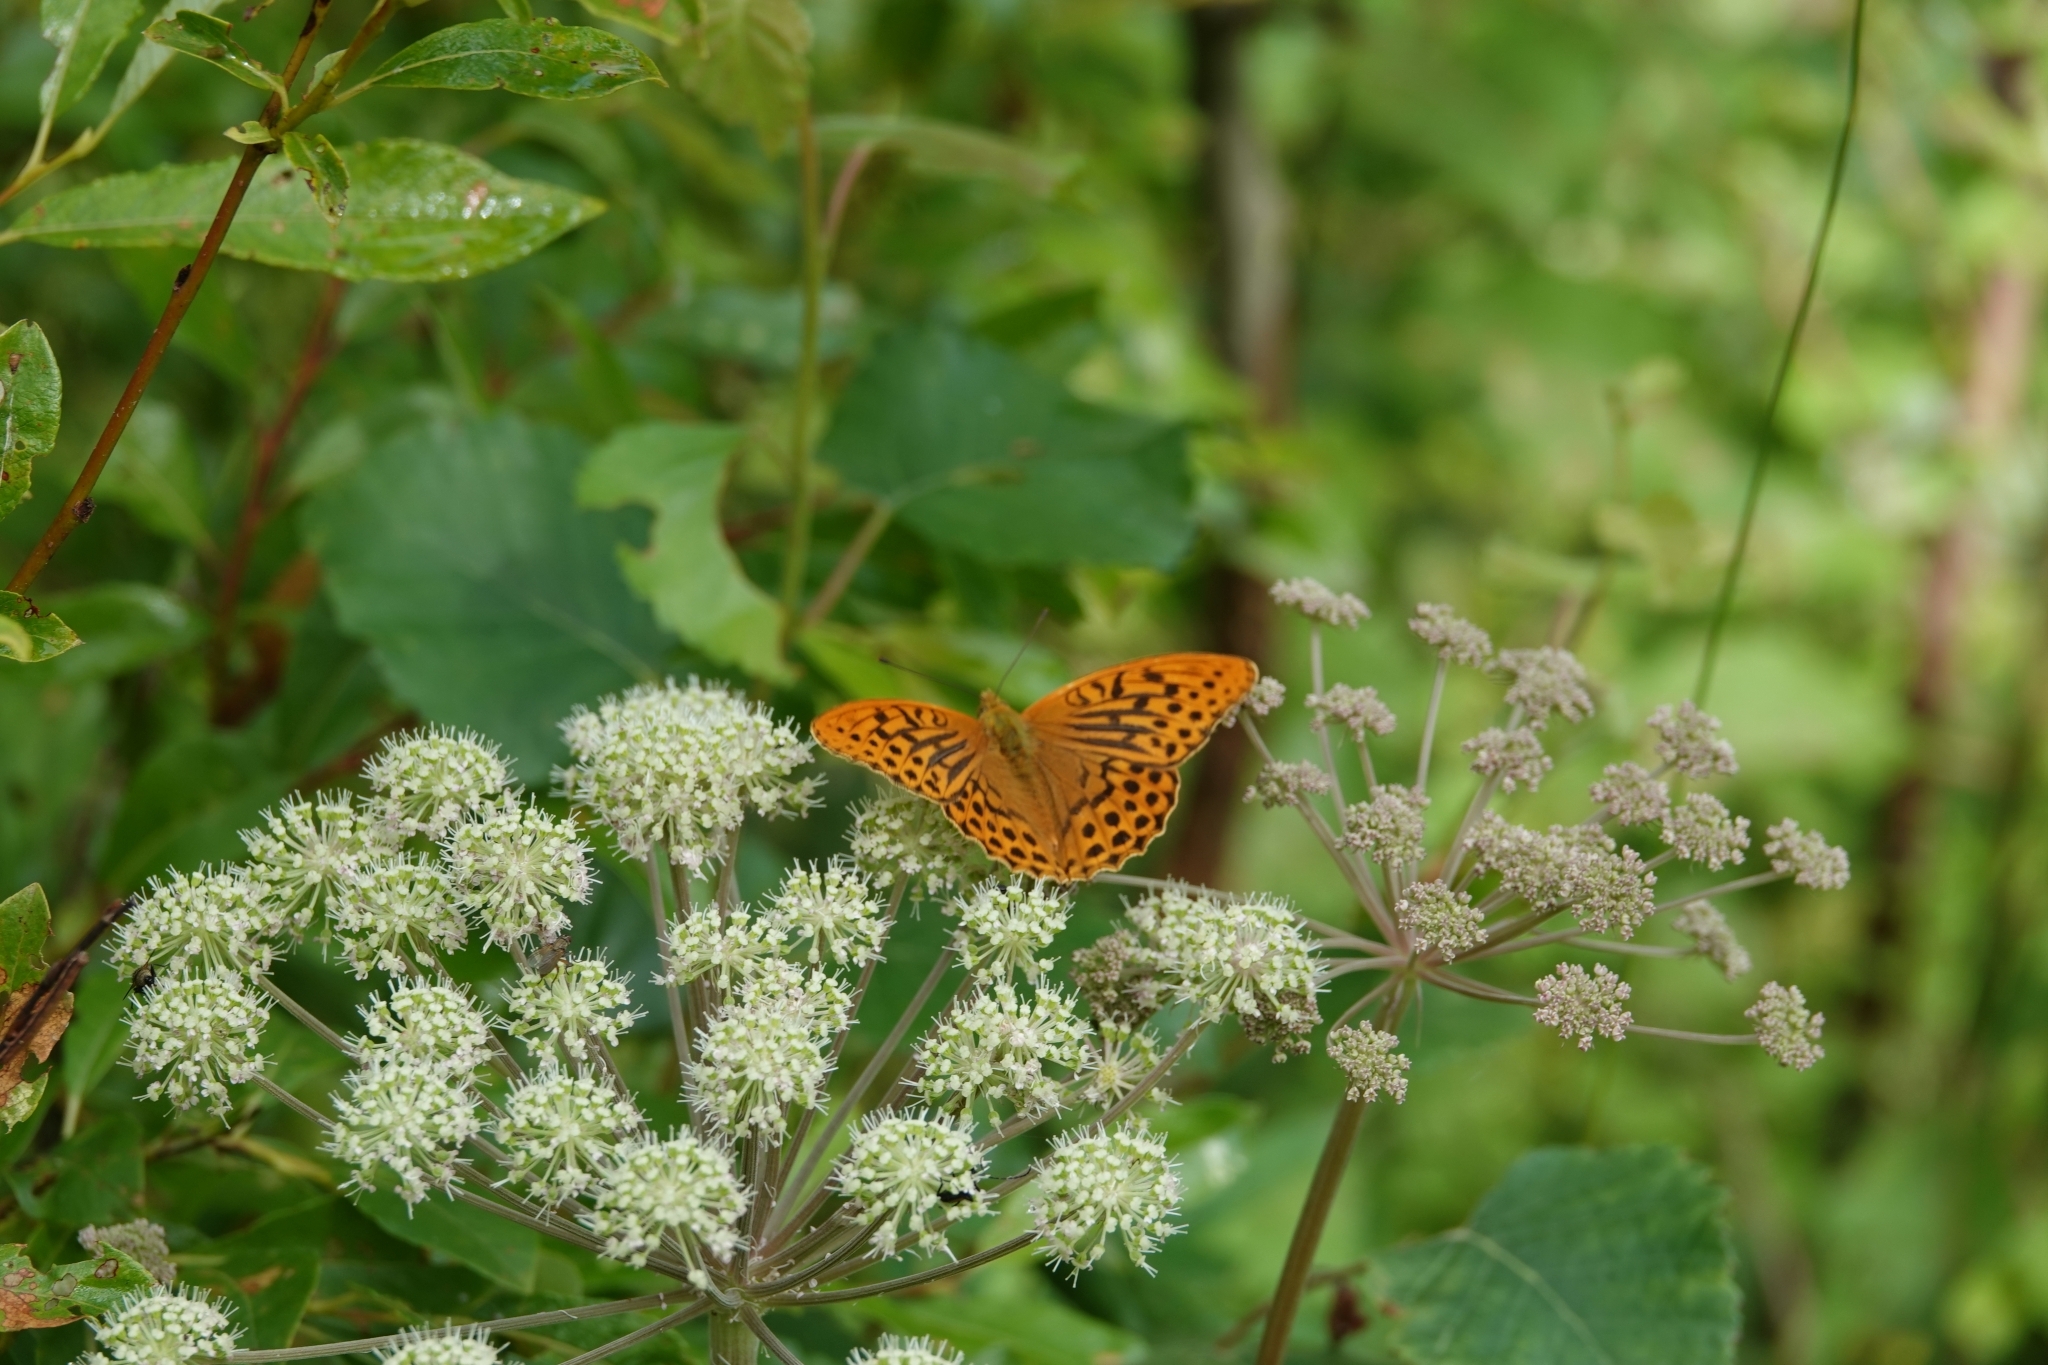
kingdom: Animalia
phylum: Arthropoda
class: Insecta
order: Lepidoptera
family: Nymphalidae
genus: Argynnis
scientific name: Argynnis paphia
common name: Silver-washed fritillary
